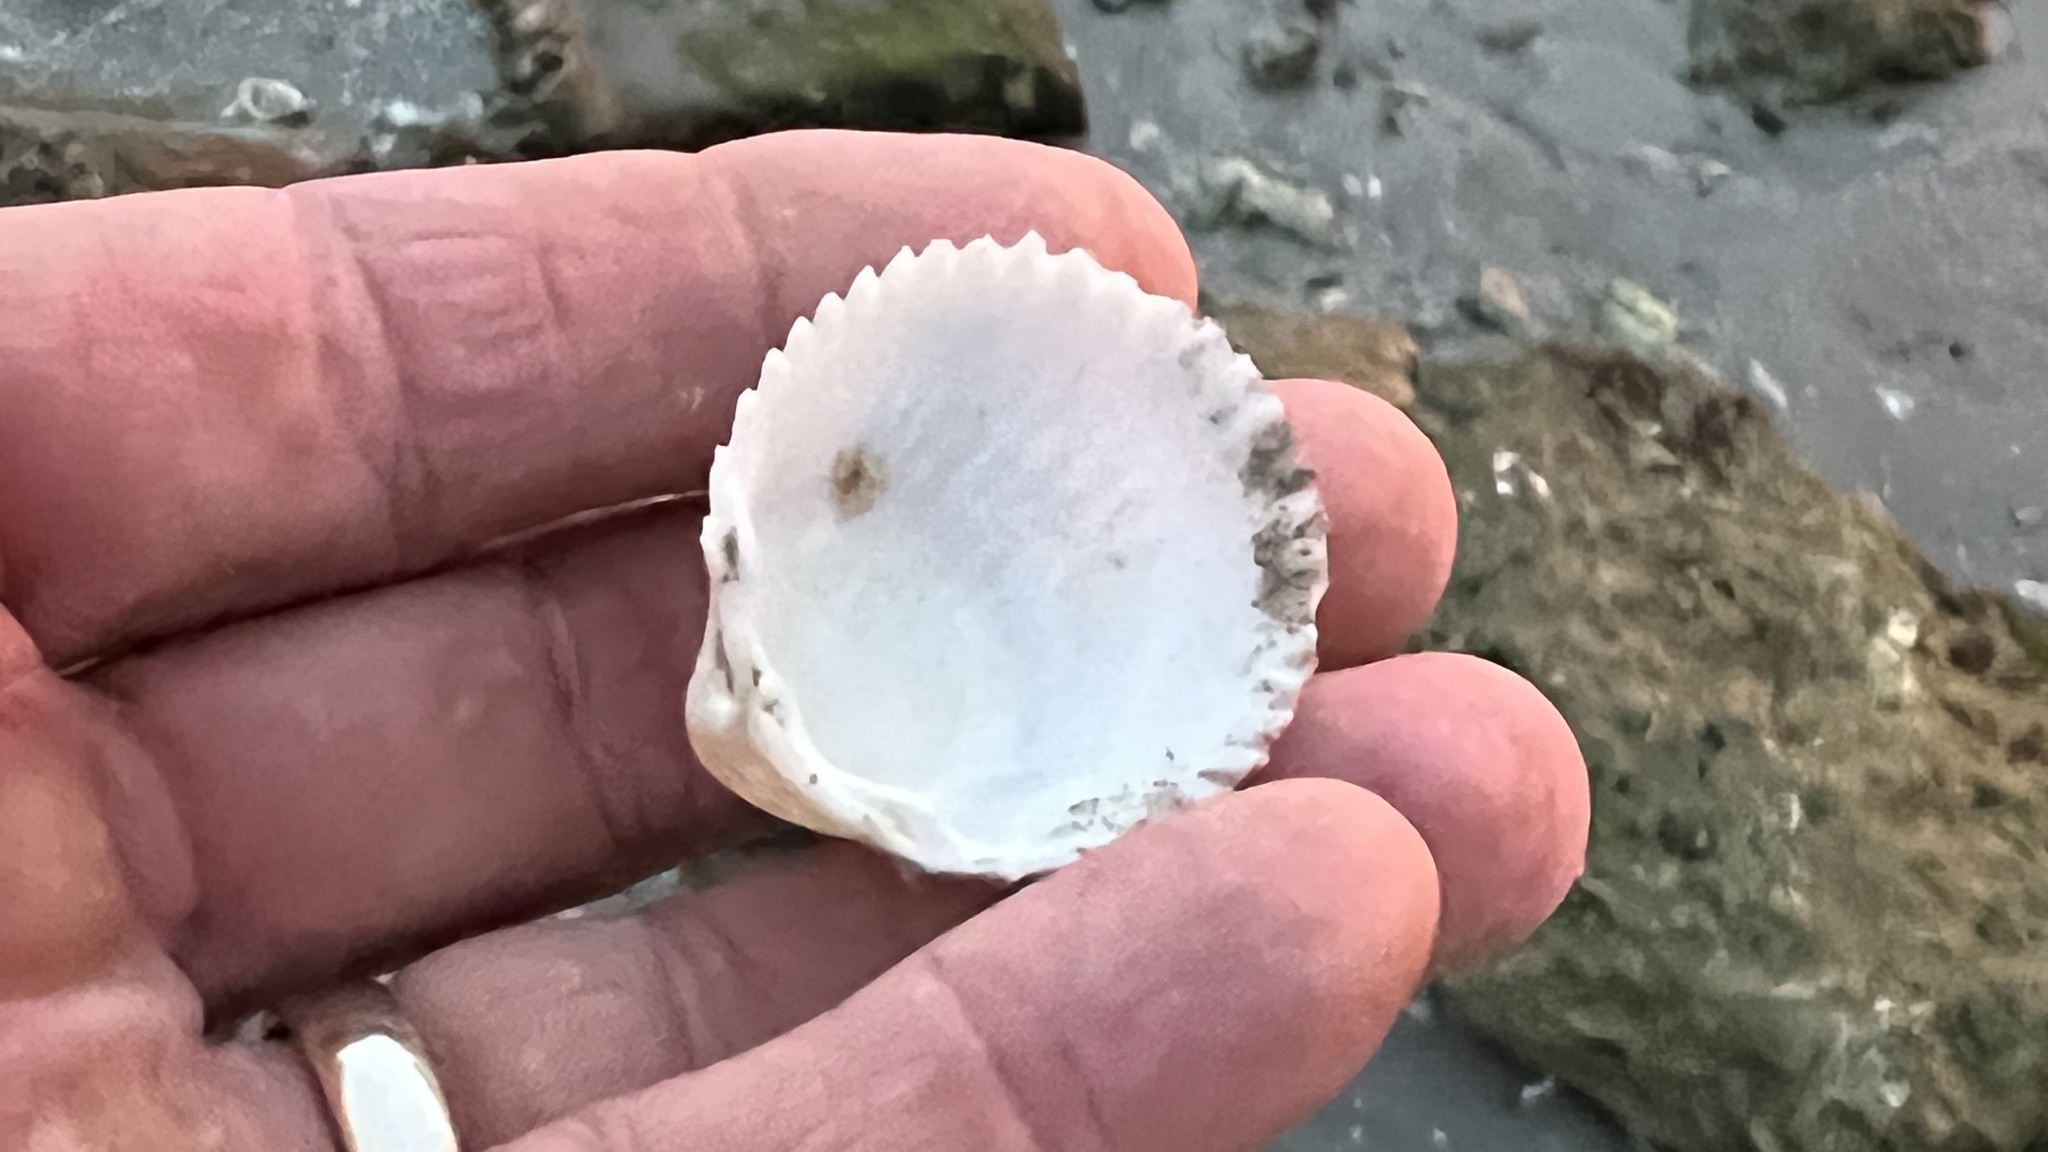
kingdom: Animalia
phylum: Mollusca
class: Bivalvia
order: Cardiida
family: Cardiidae
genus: Dallocardia
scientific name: Dallocardia muricata
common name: Yellow pricklycockle
